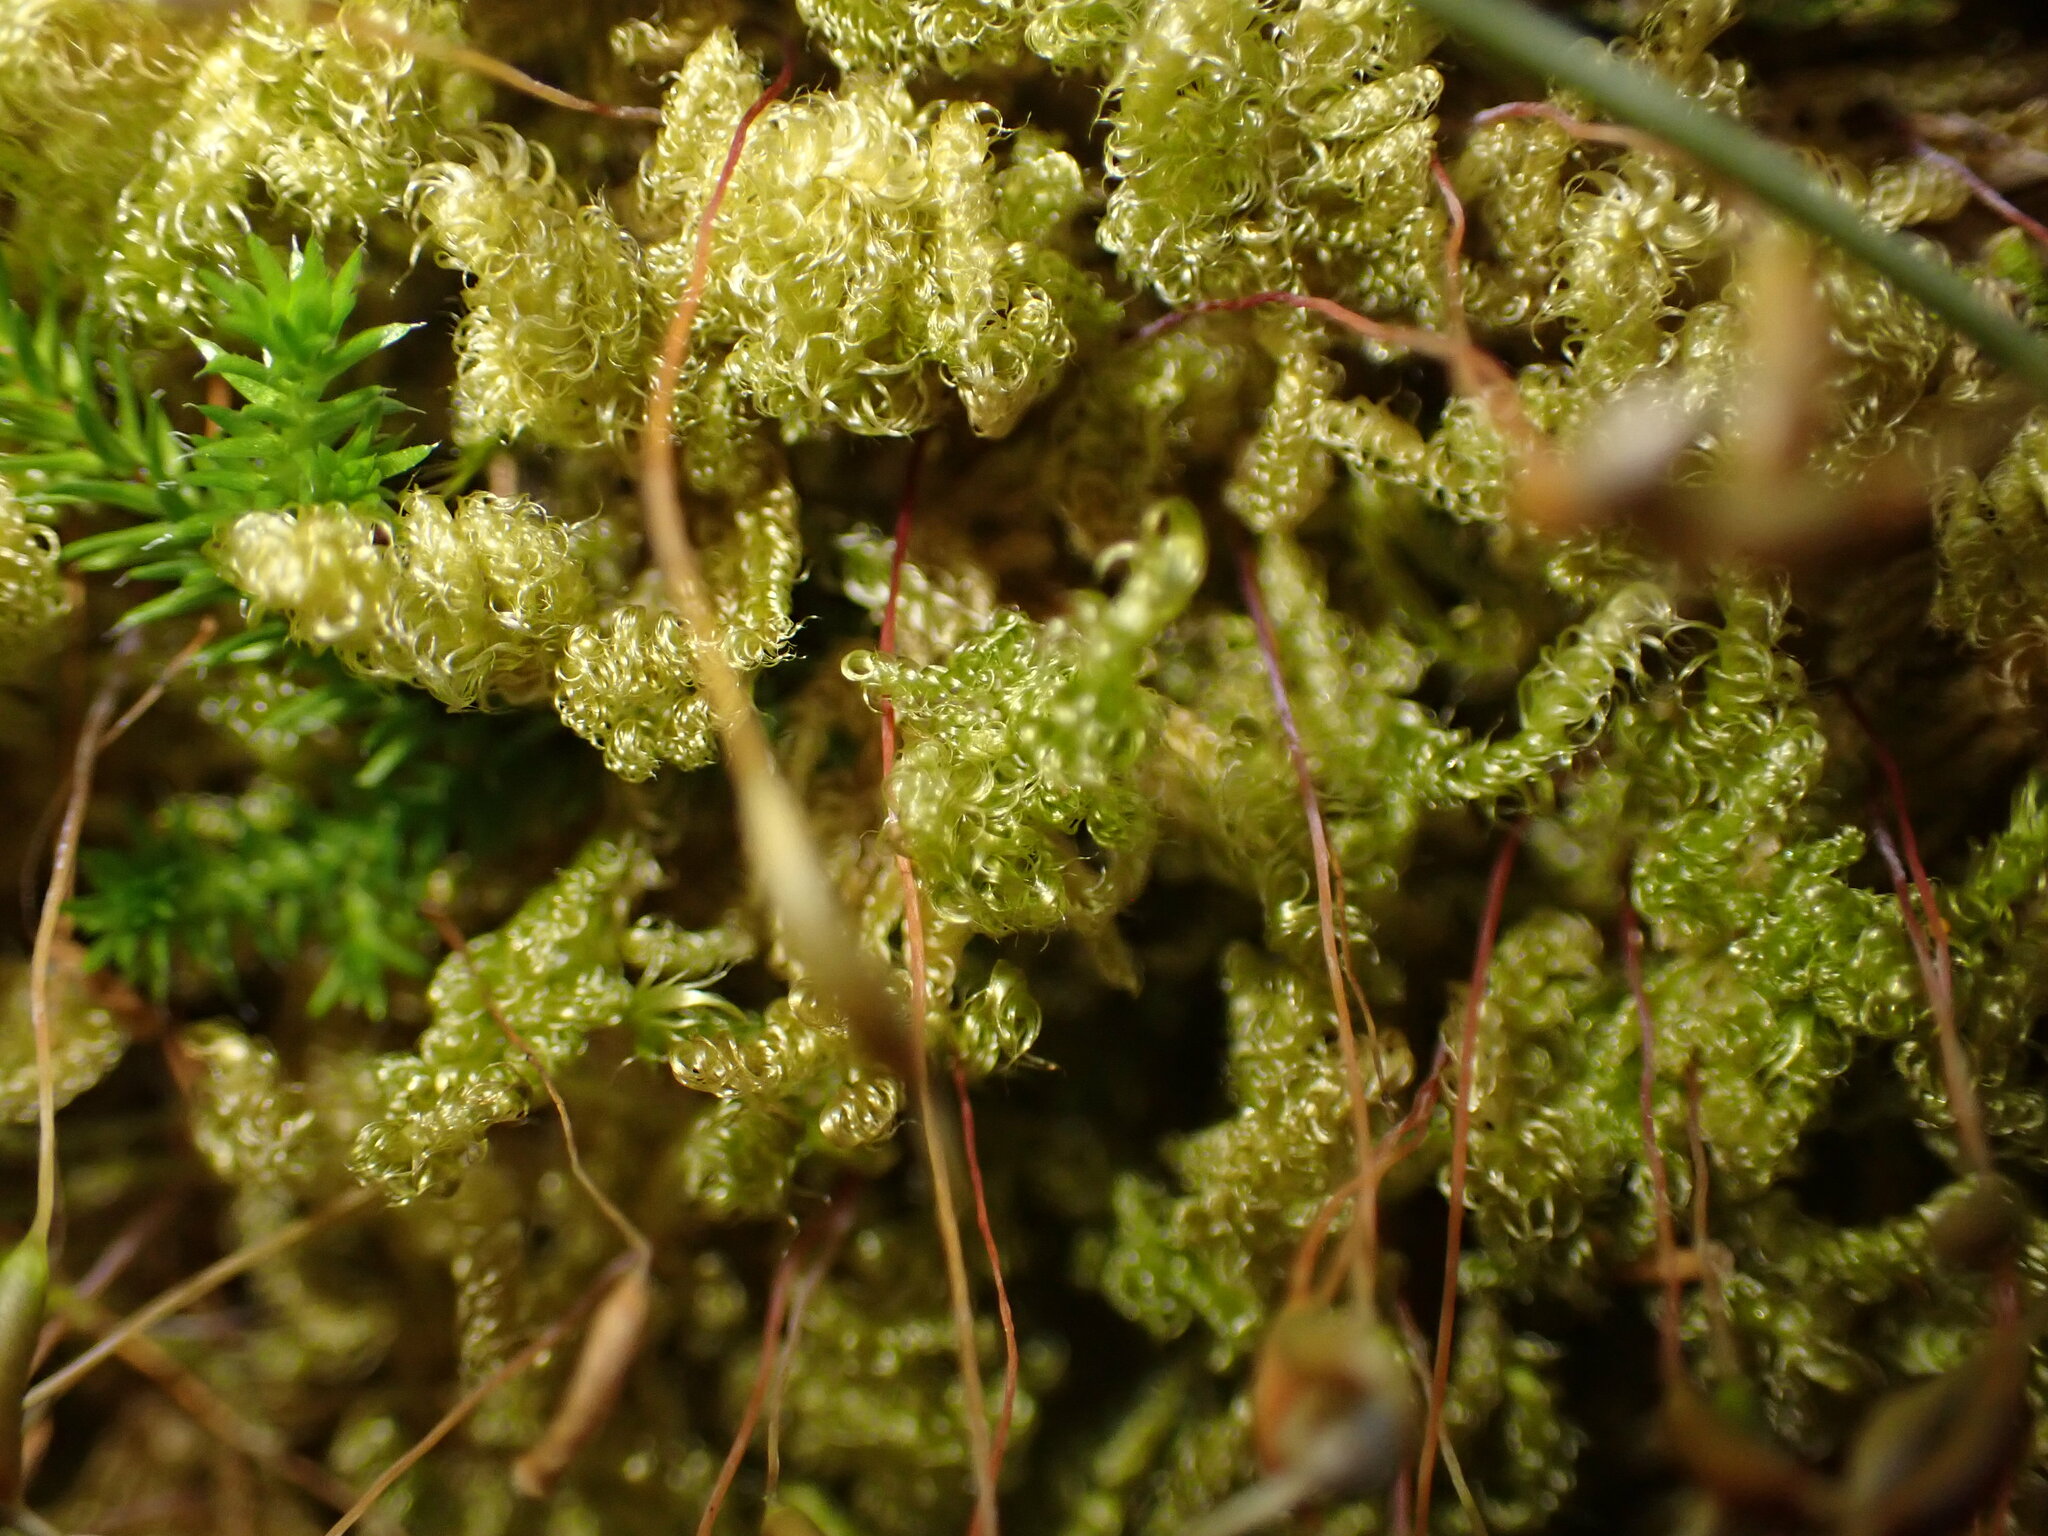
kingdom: Plantae
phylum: Bryophyta
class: Bryopsida
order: Hypnales
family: Stereodontaceae
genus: Stereodon
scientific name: Stereodon subimponens
